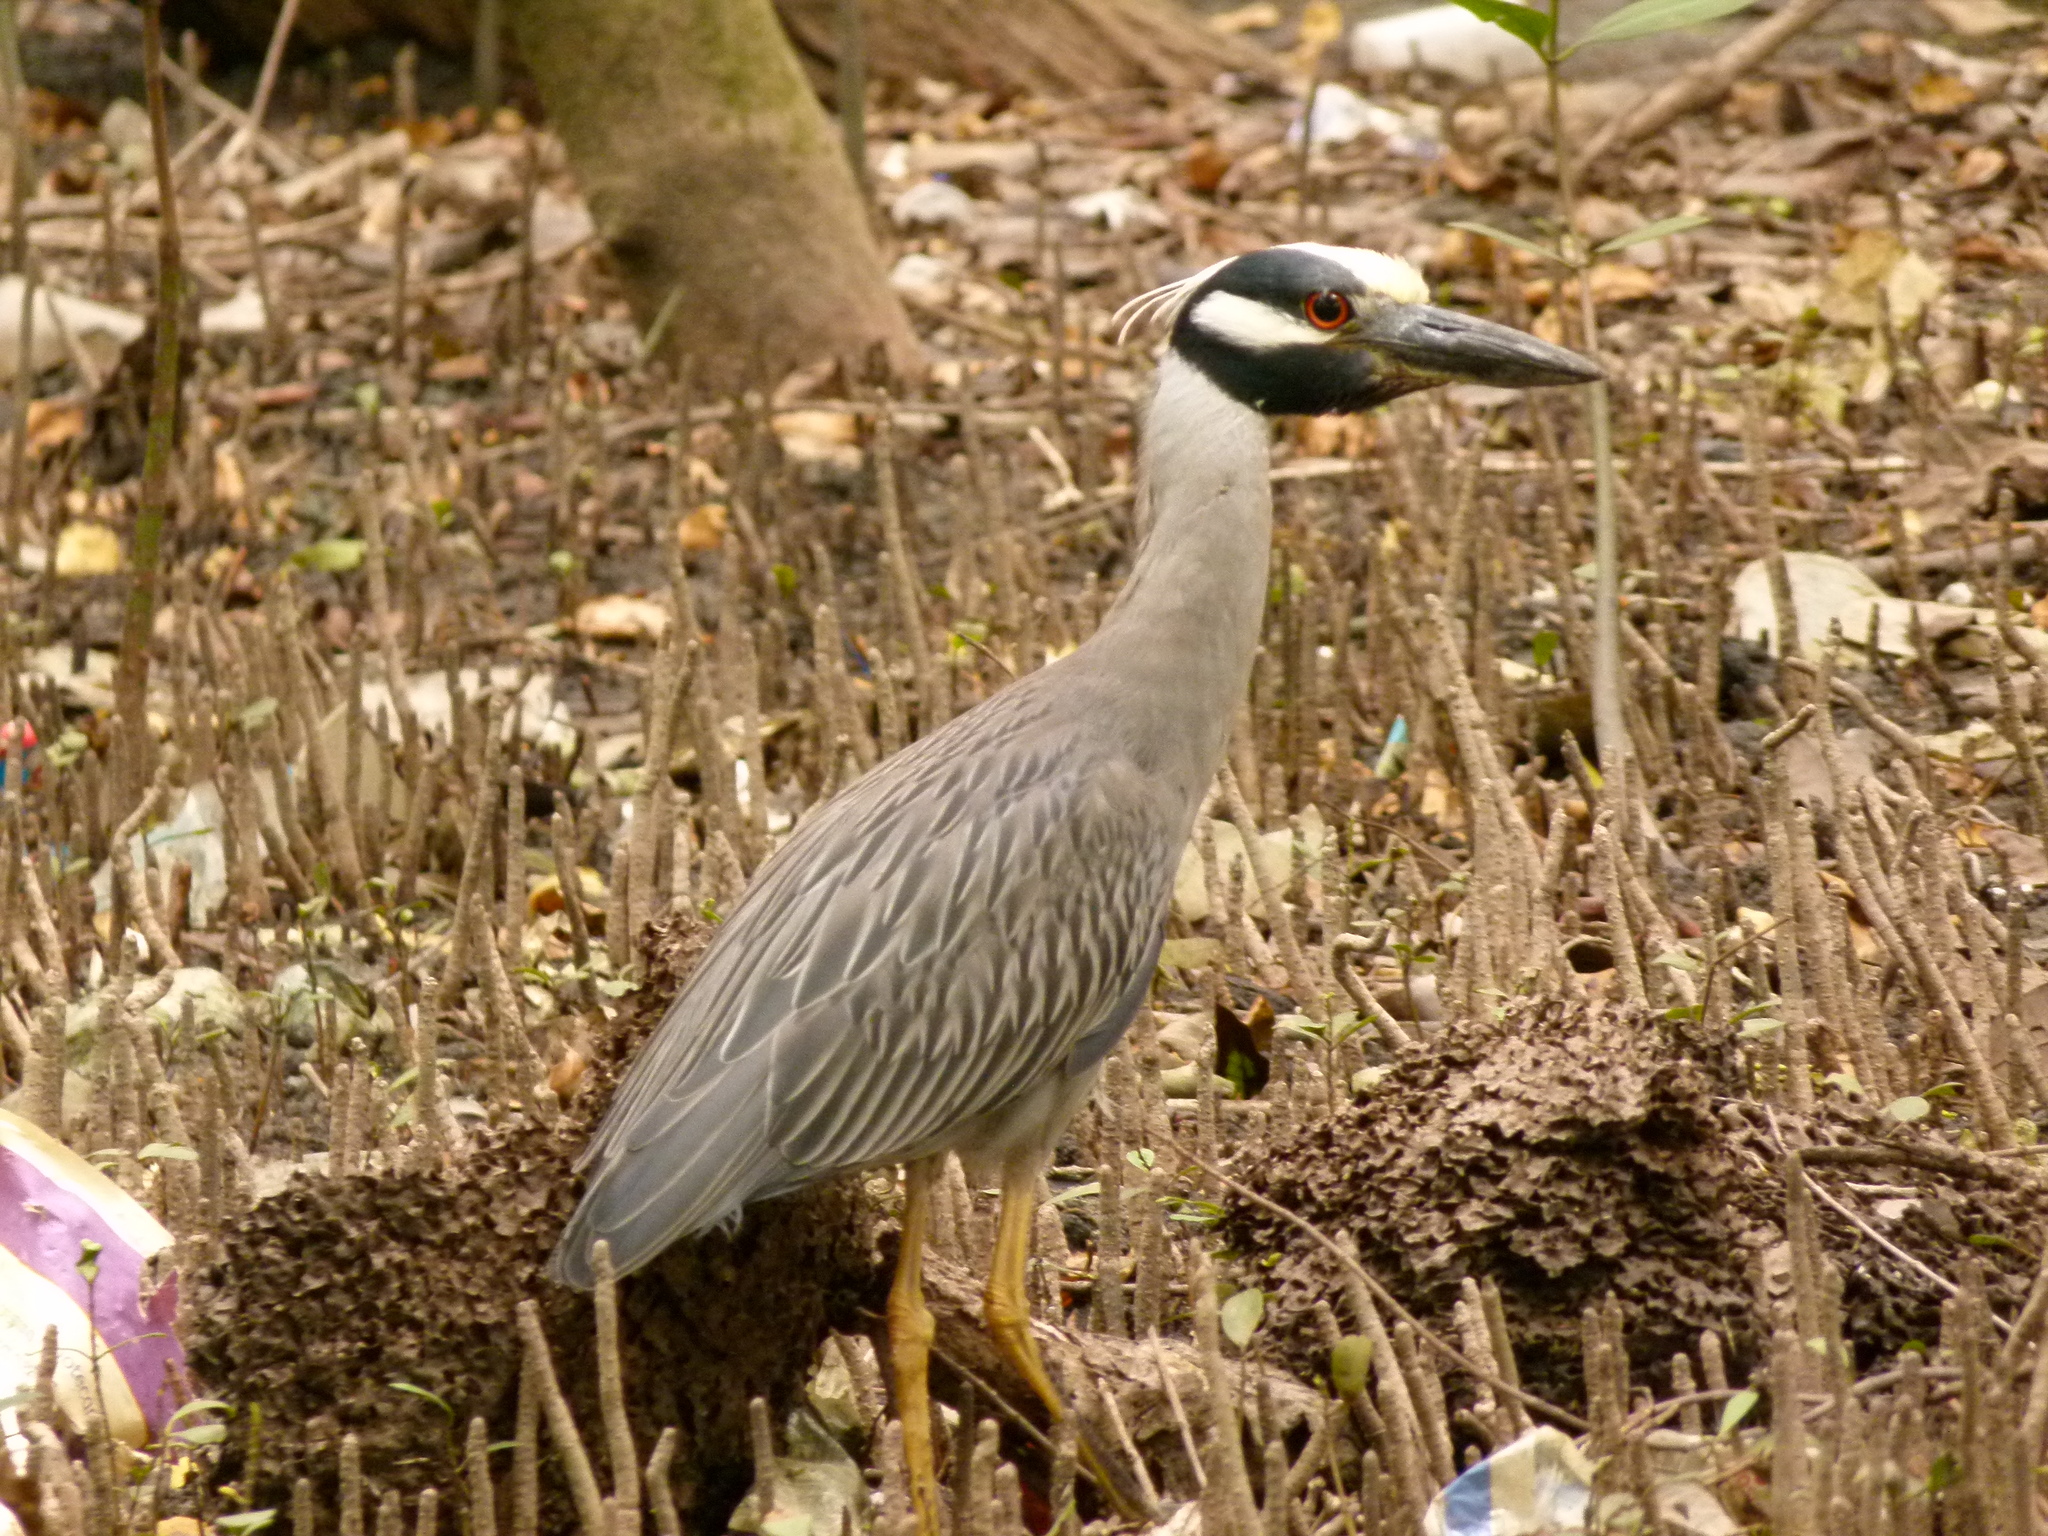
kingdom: Animalia
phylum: Chordata
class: Aves
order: Pelecaniformes
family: Ardeidae
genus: Nyctanassa
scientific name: Nyctanassa violacea
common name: Yellow-crowned night heron
